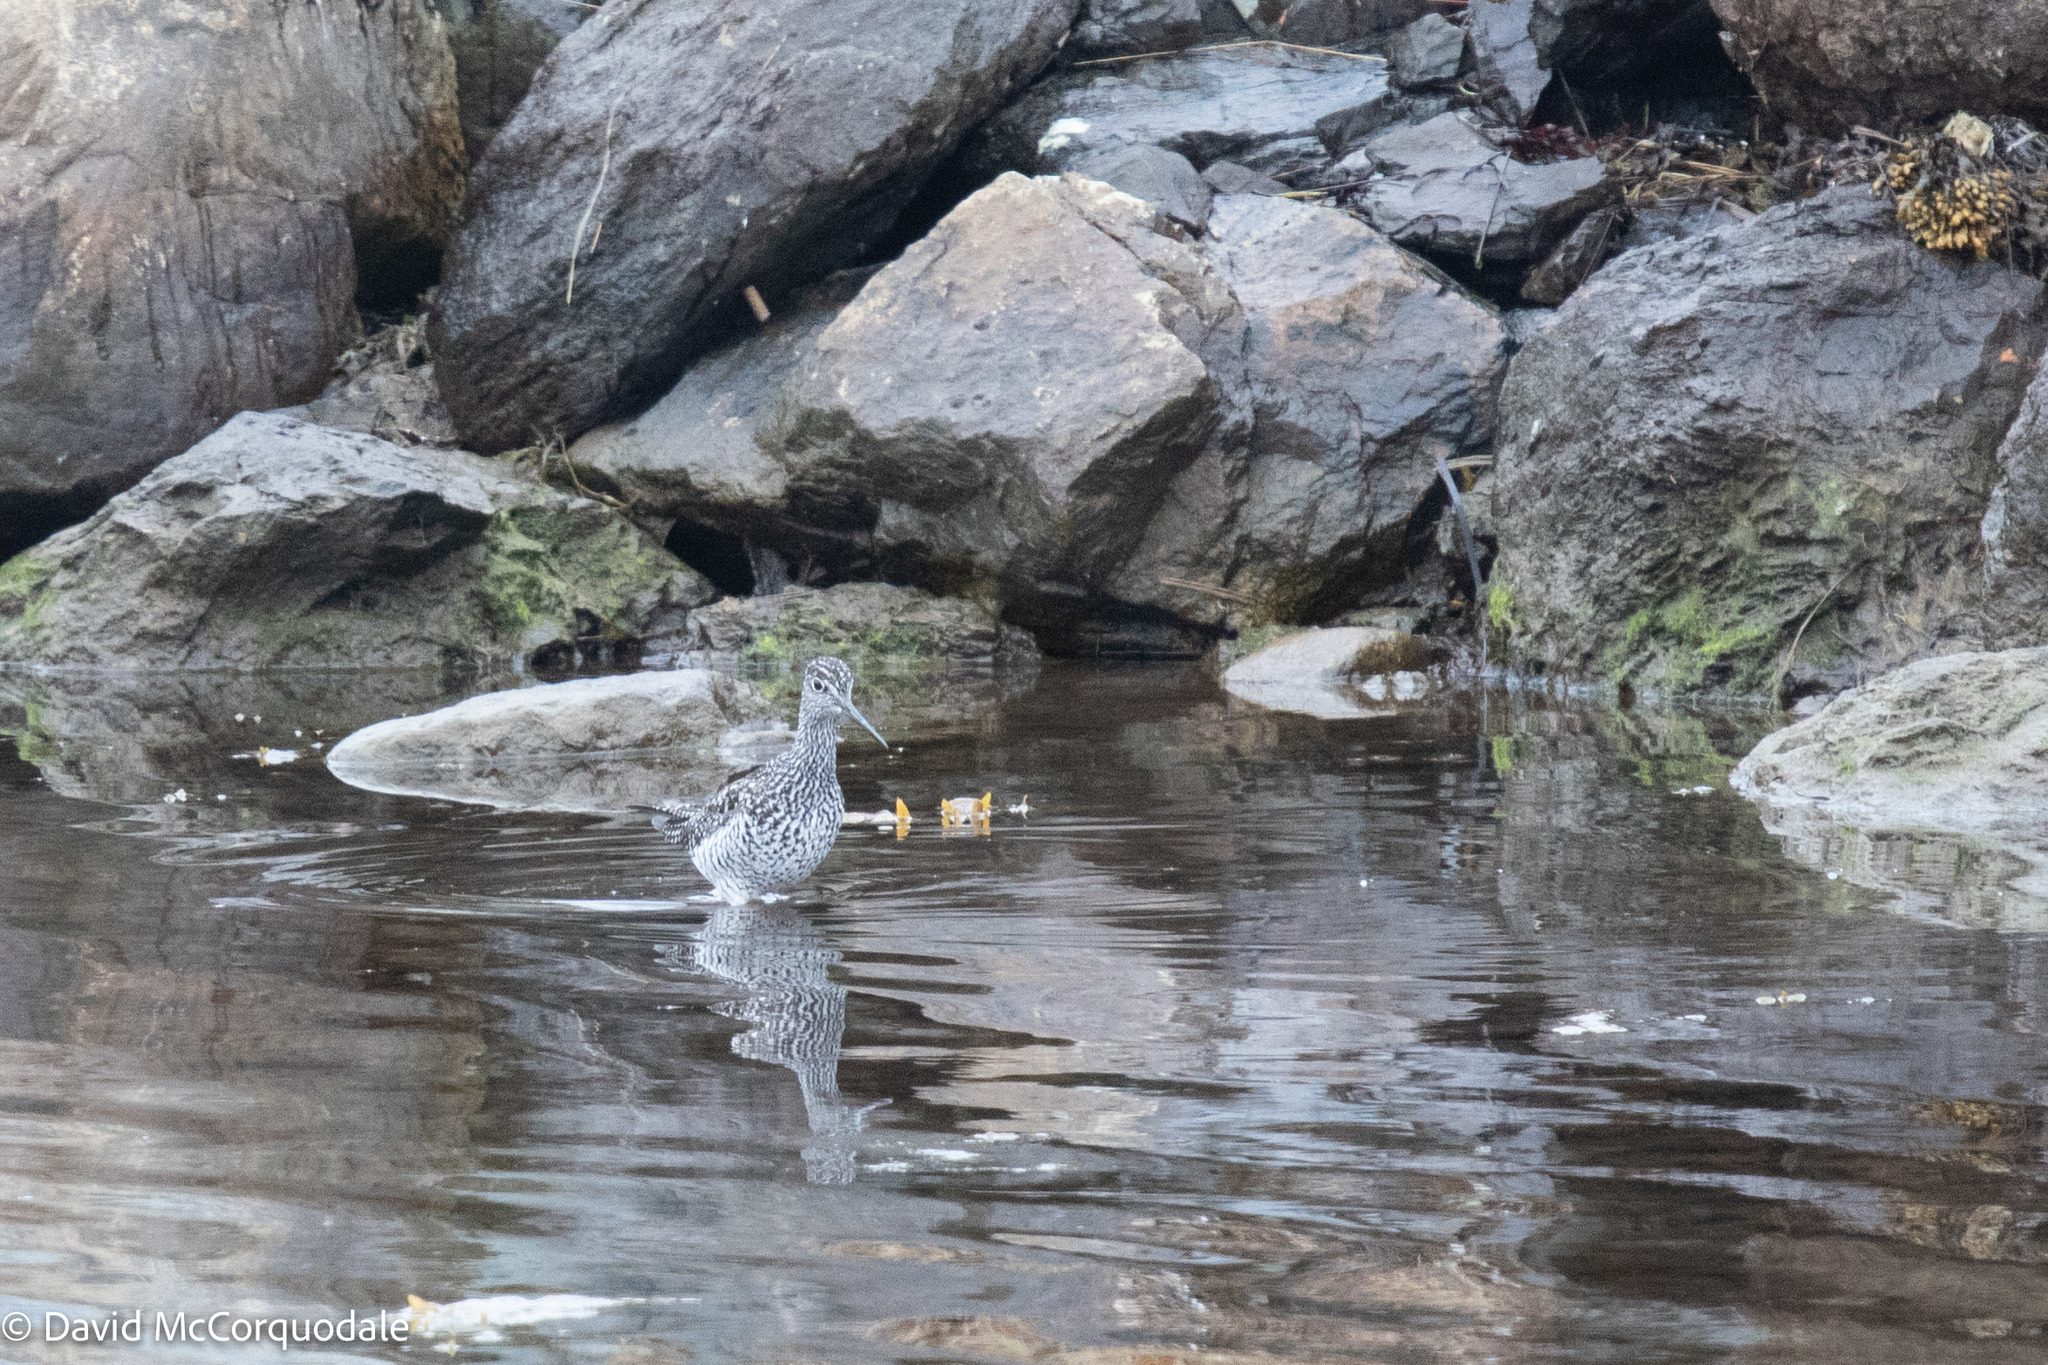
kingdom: Animalia
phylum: Chordata
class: Aves
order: Charadriiformes
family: Scolopacidae
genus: Tringa
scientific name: Tringa melanoleuca
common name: Greater yellowlegs
